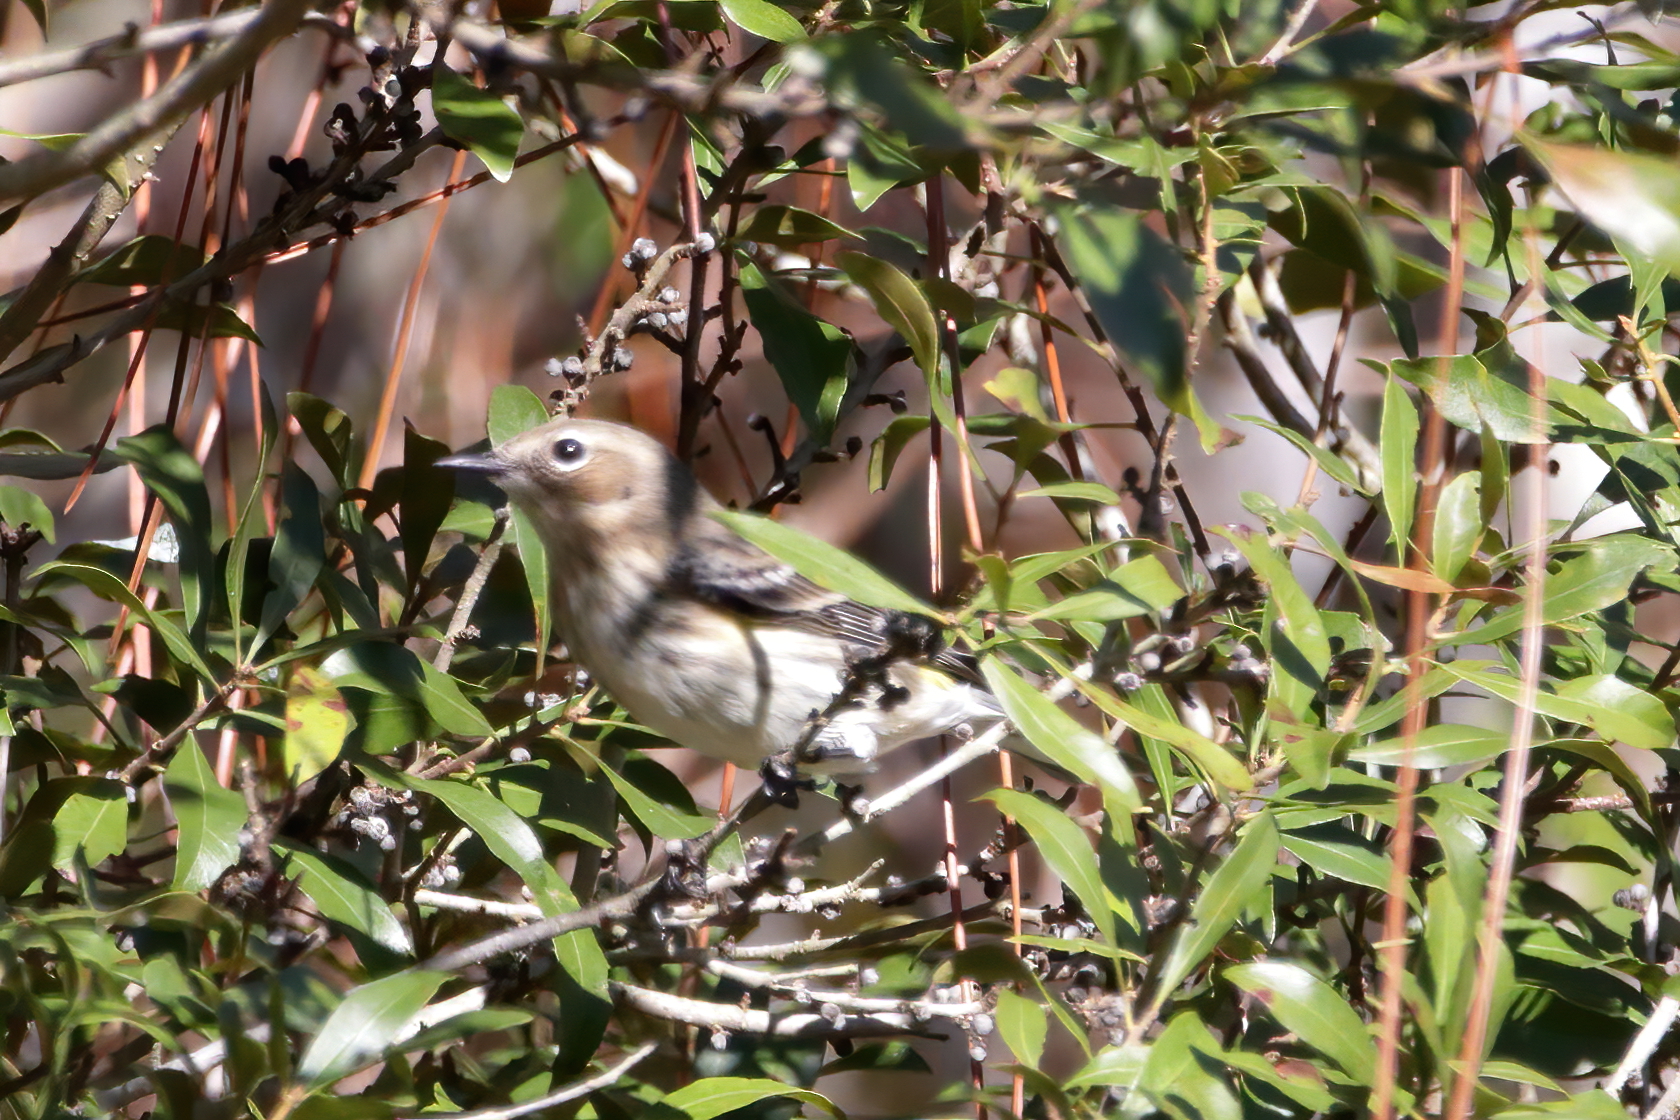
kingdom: Animalia
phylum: Chordata
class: Aves
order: Passeriformes
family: Parulidae
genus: Setophaga
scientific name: Setophaga coronata
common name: Myrtle warbler
